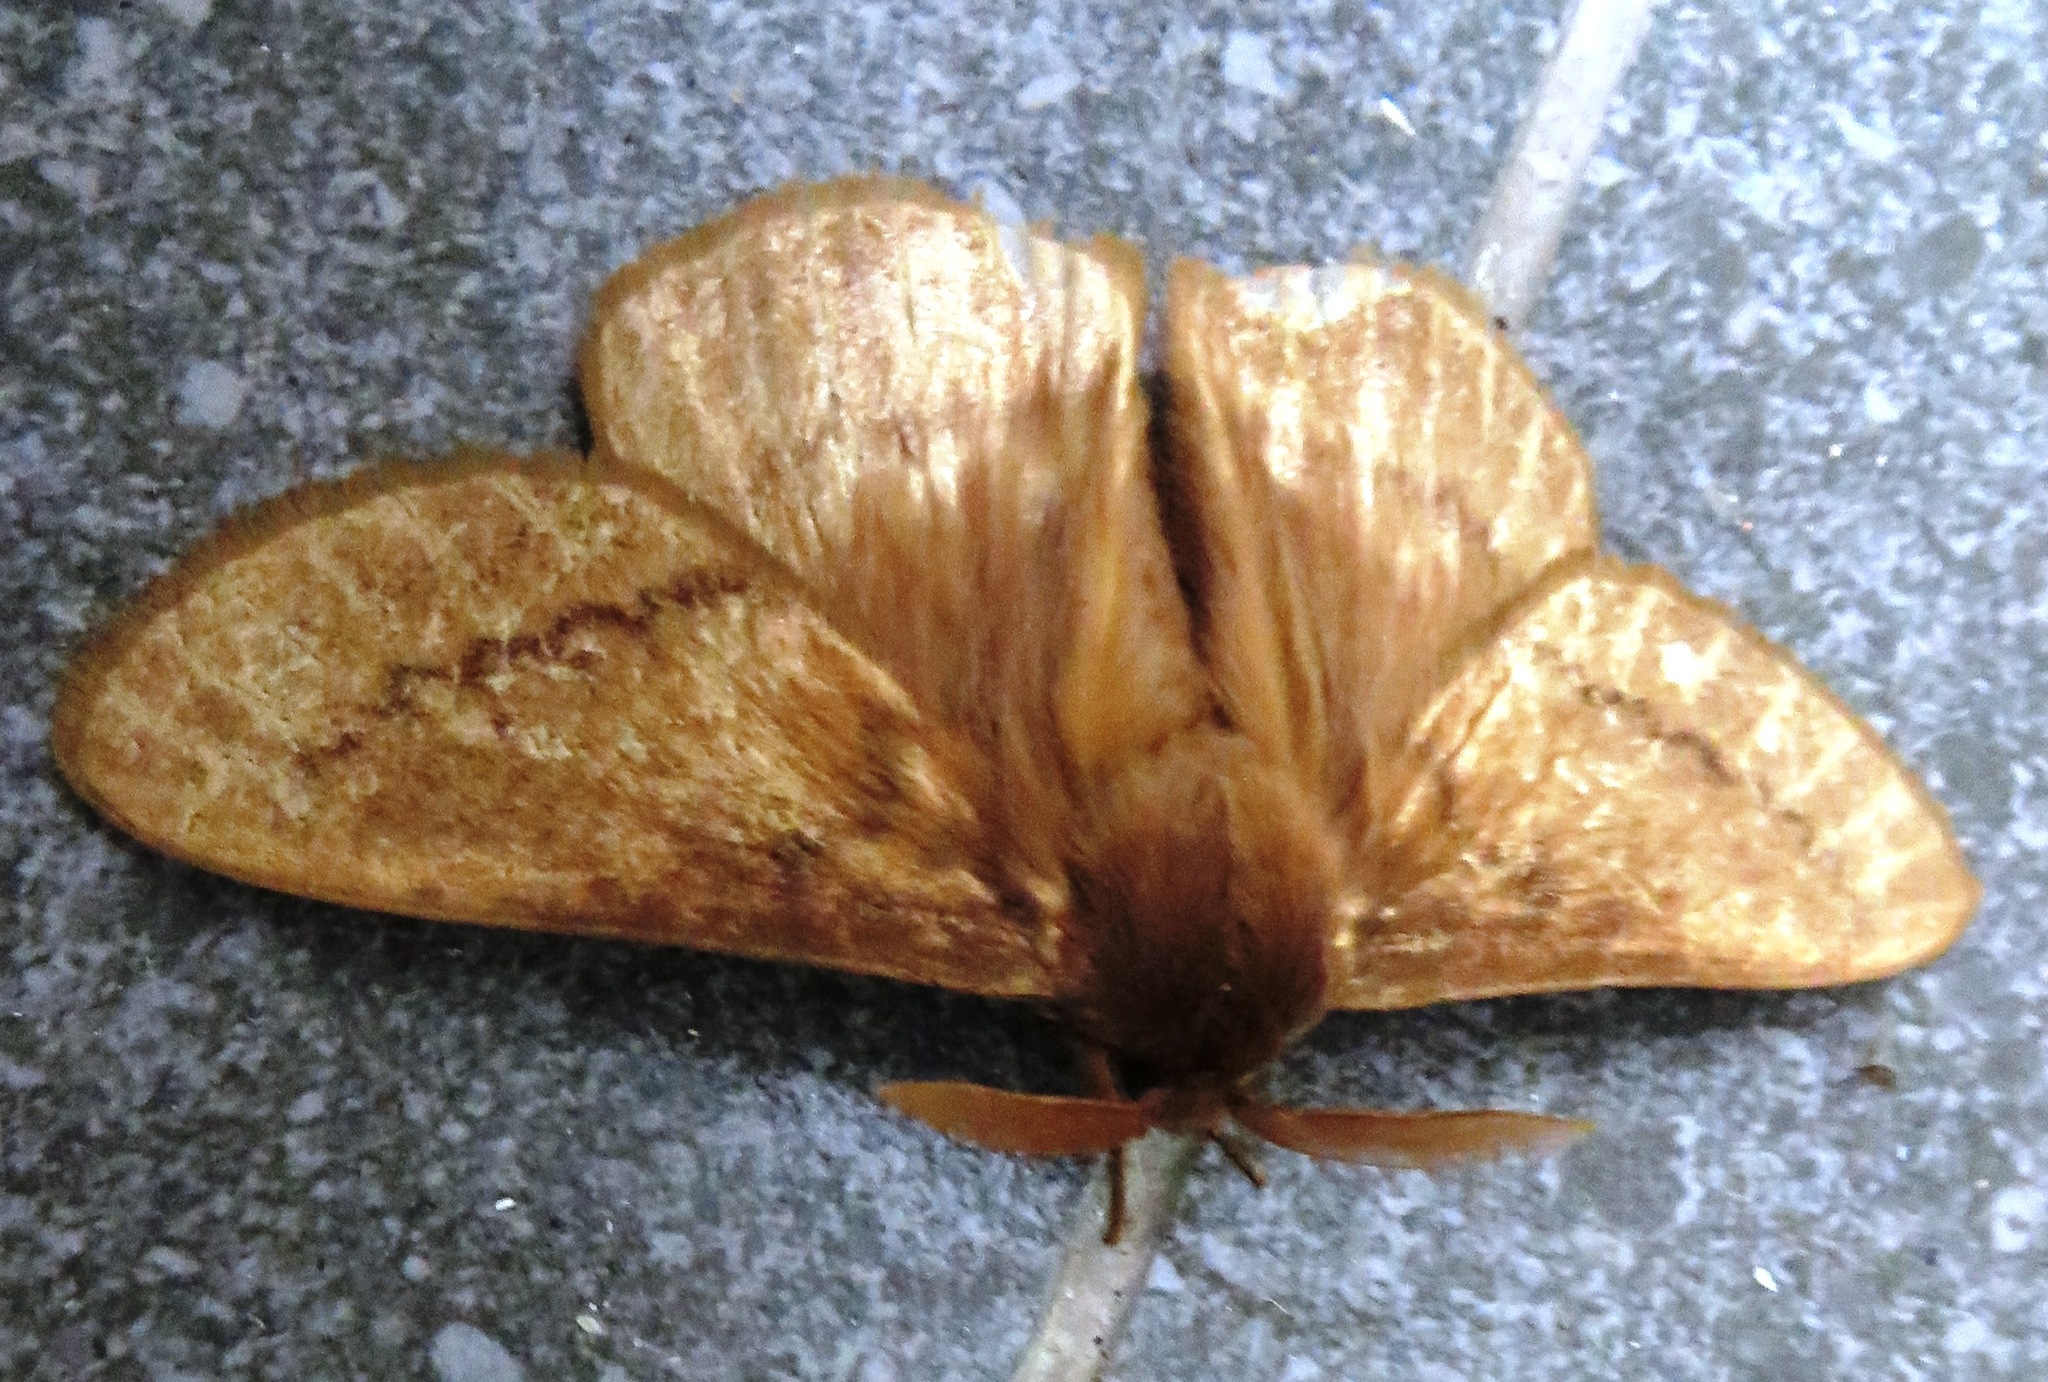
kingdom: Animalia
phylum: Arthropoda
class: Insecta
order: Lepidoptera
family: Eupterotidae
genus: Phyllalia
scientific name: Phyllalia thunbergii
